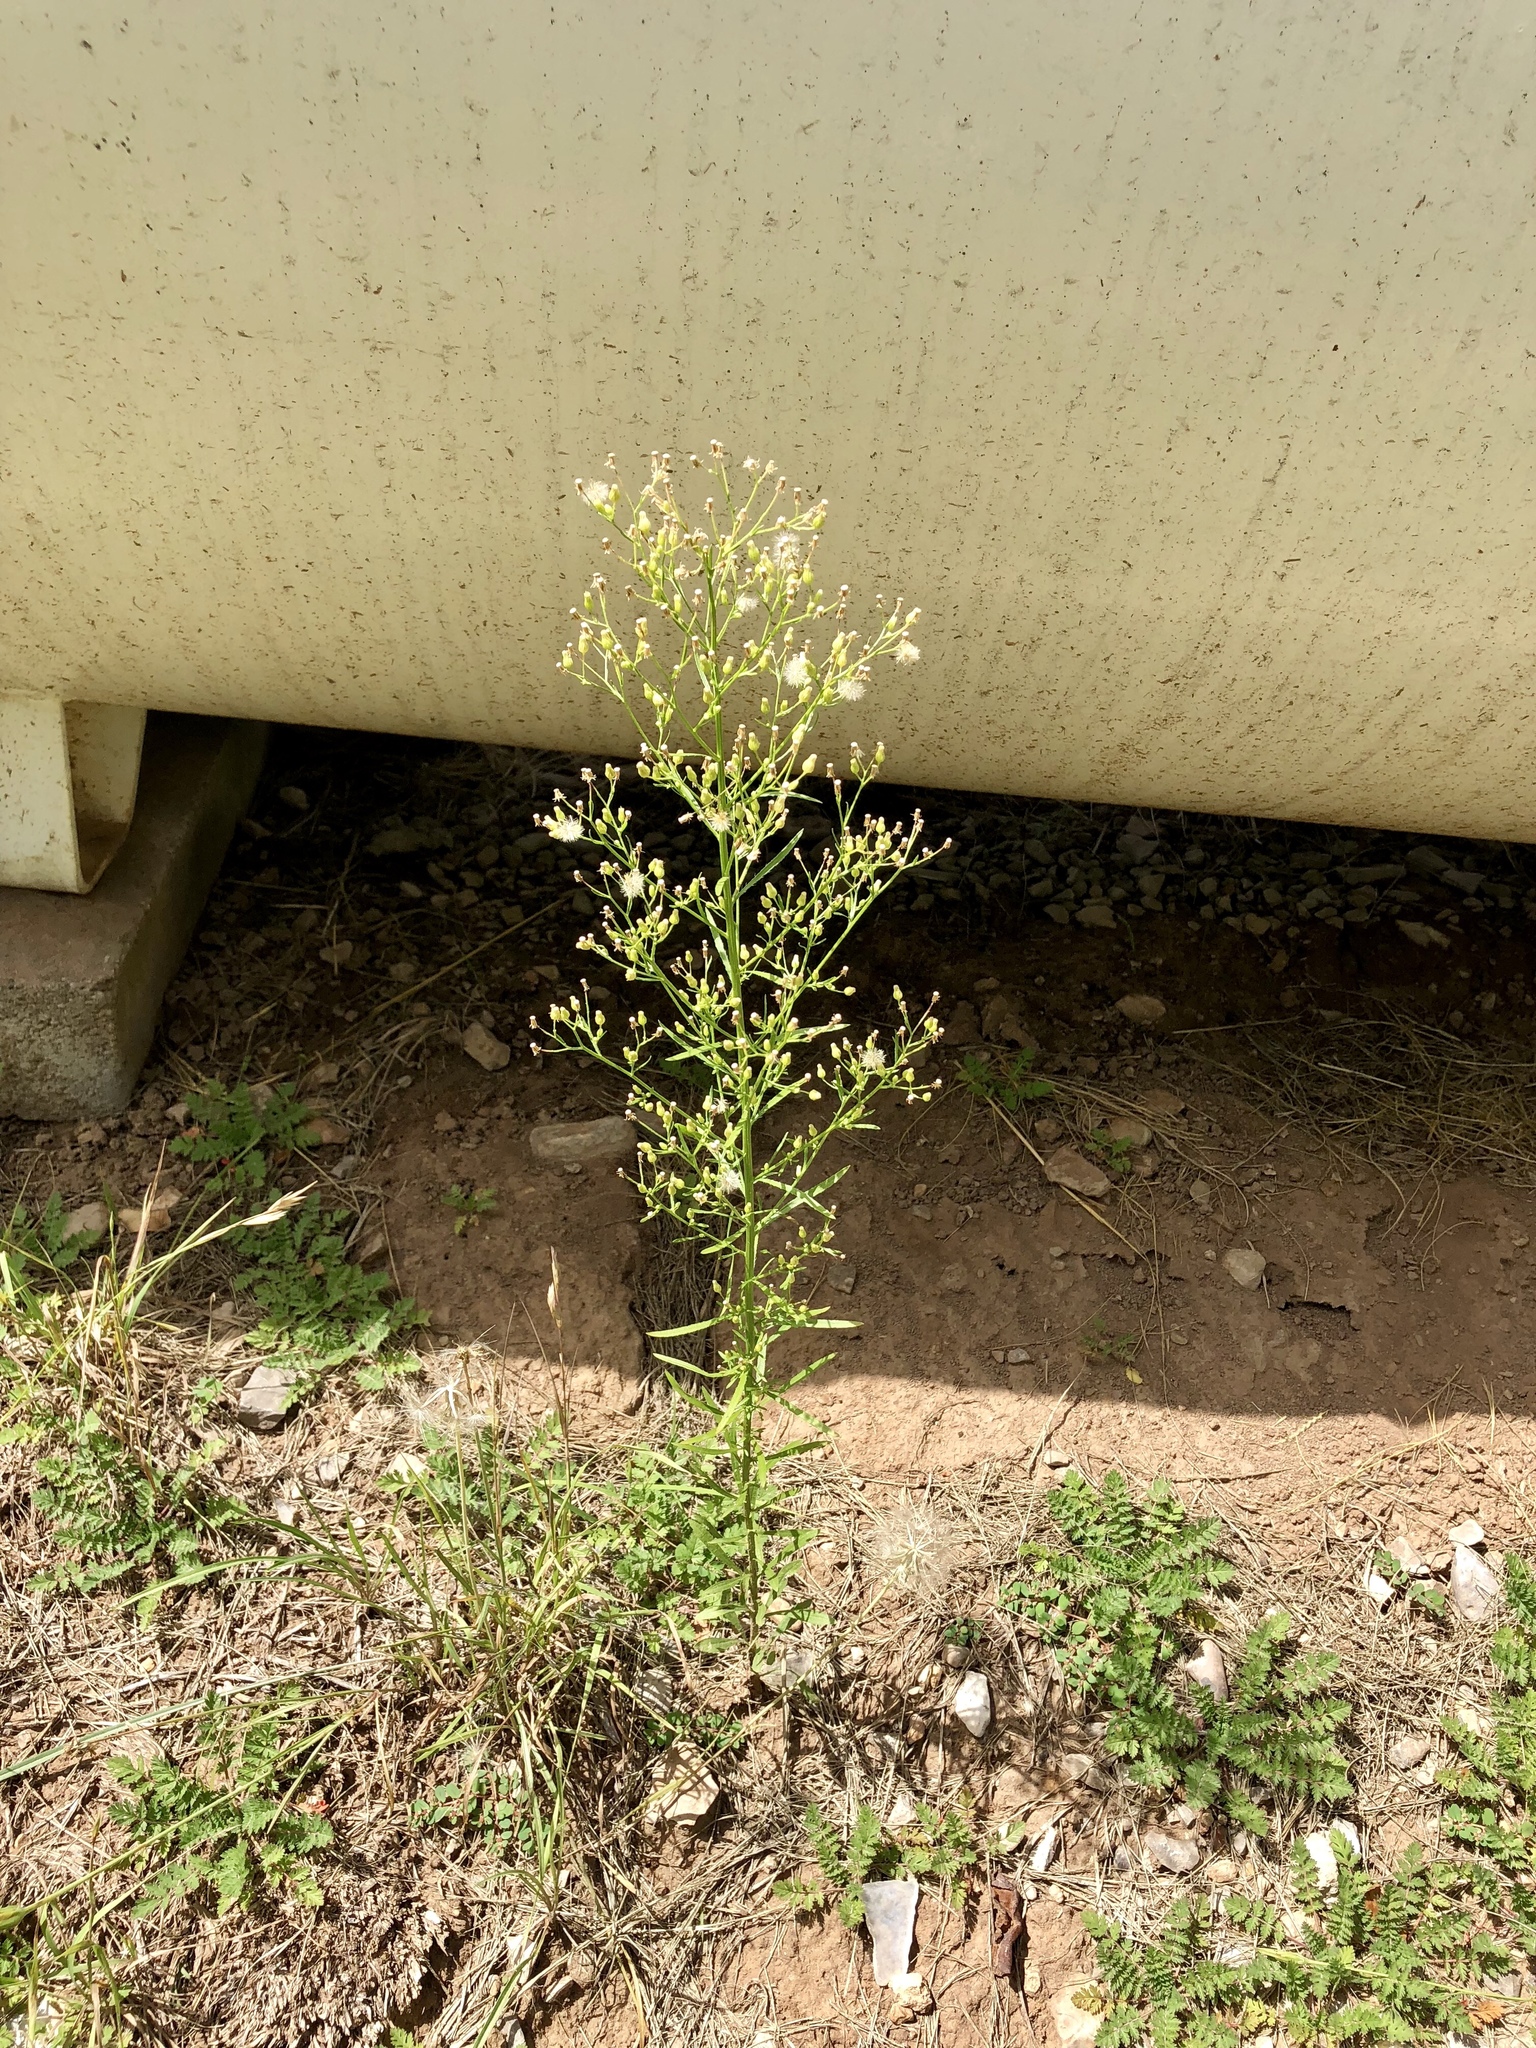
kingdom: Plantae
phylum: Tracheophyta
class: Magnoliopsida
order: Asterales
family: Asteraceae
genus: Erigeron
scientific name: Erigeron canadensis
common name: Canadian fleabane
